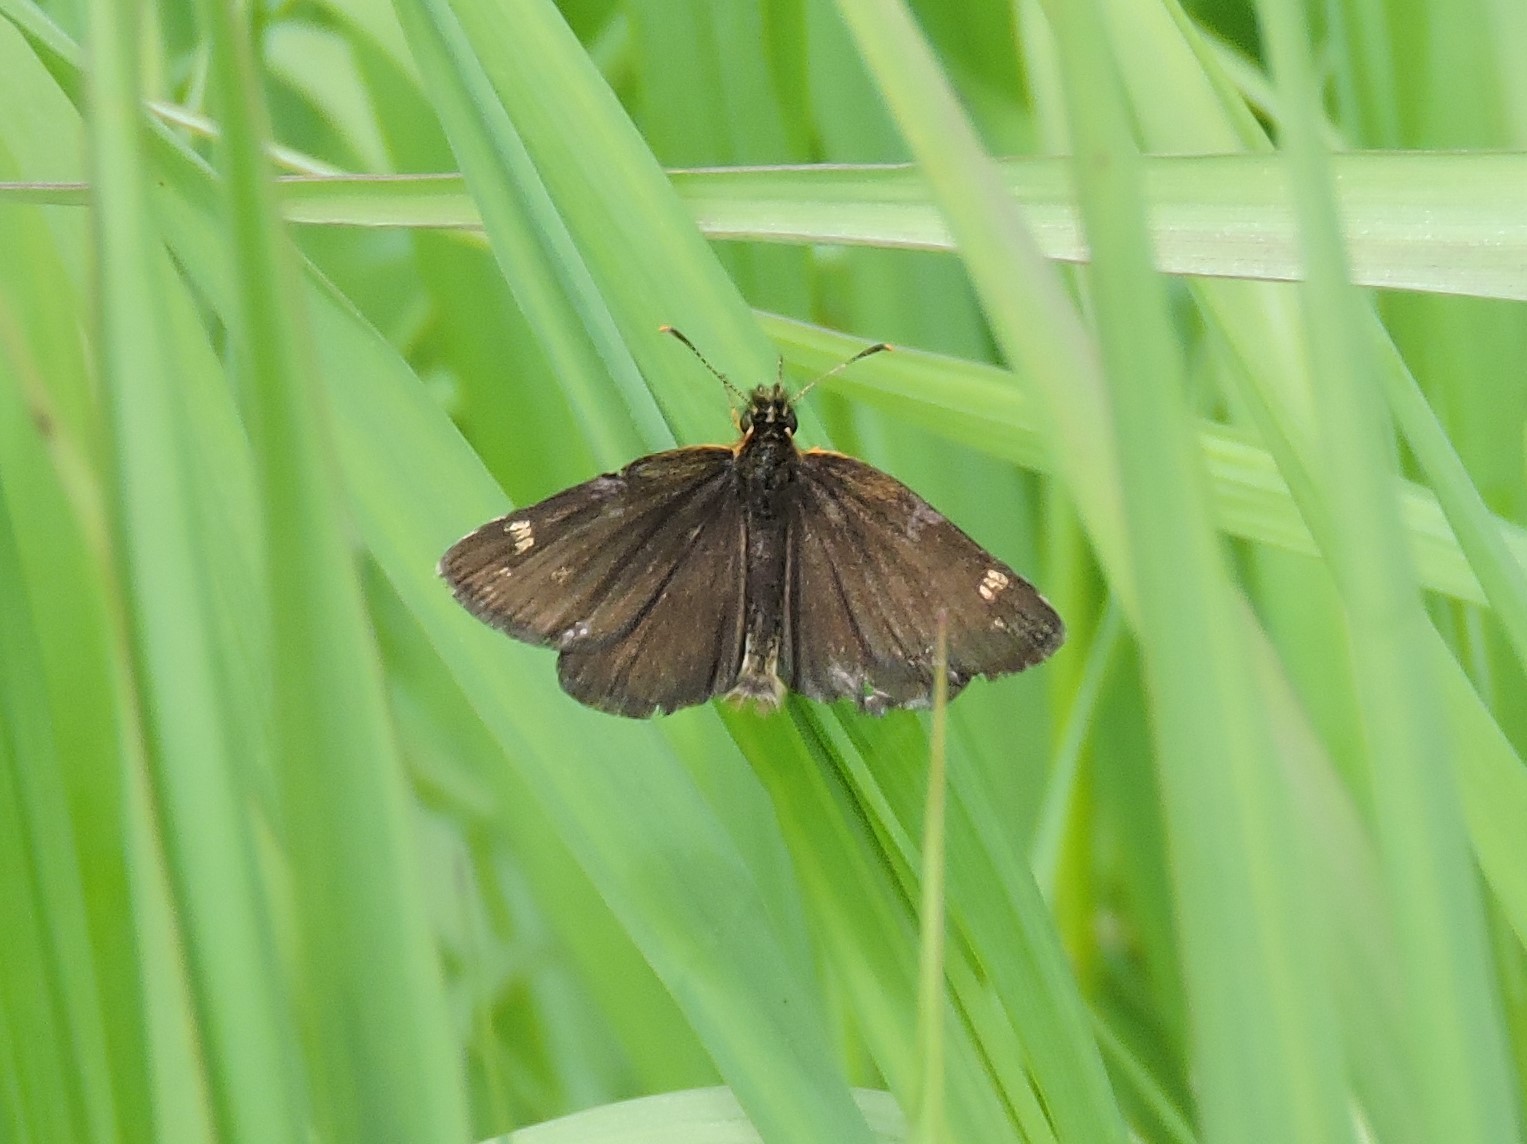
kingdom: Animalia
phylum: Arthropoda
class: Insecta
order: Lepidoptera
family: Hesperiidae
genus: Heteropterus
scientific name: Heteropterus morpheus
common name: Large chequered skipper
